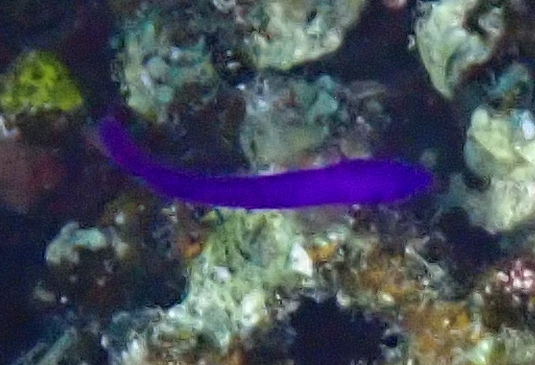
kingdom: Animalia
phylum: Chordata
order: Perciformes
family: Pseudochromidae
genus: Pseudochromis
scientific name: Pseudochromis fridmani
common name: Orchid dottyback
